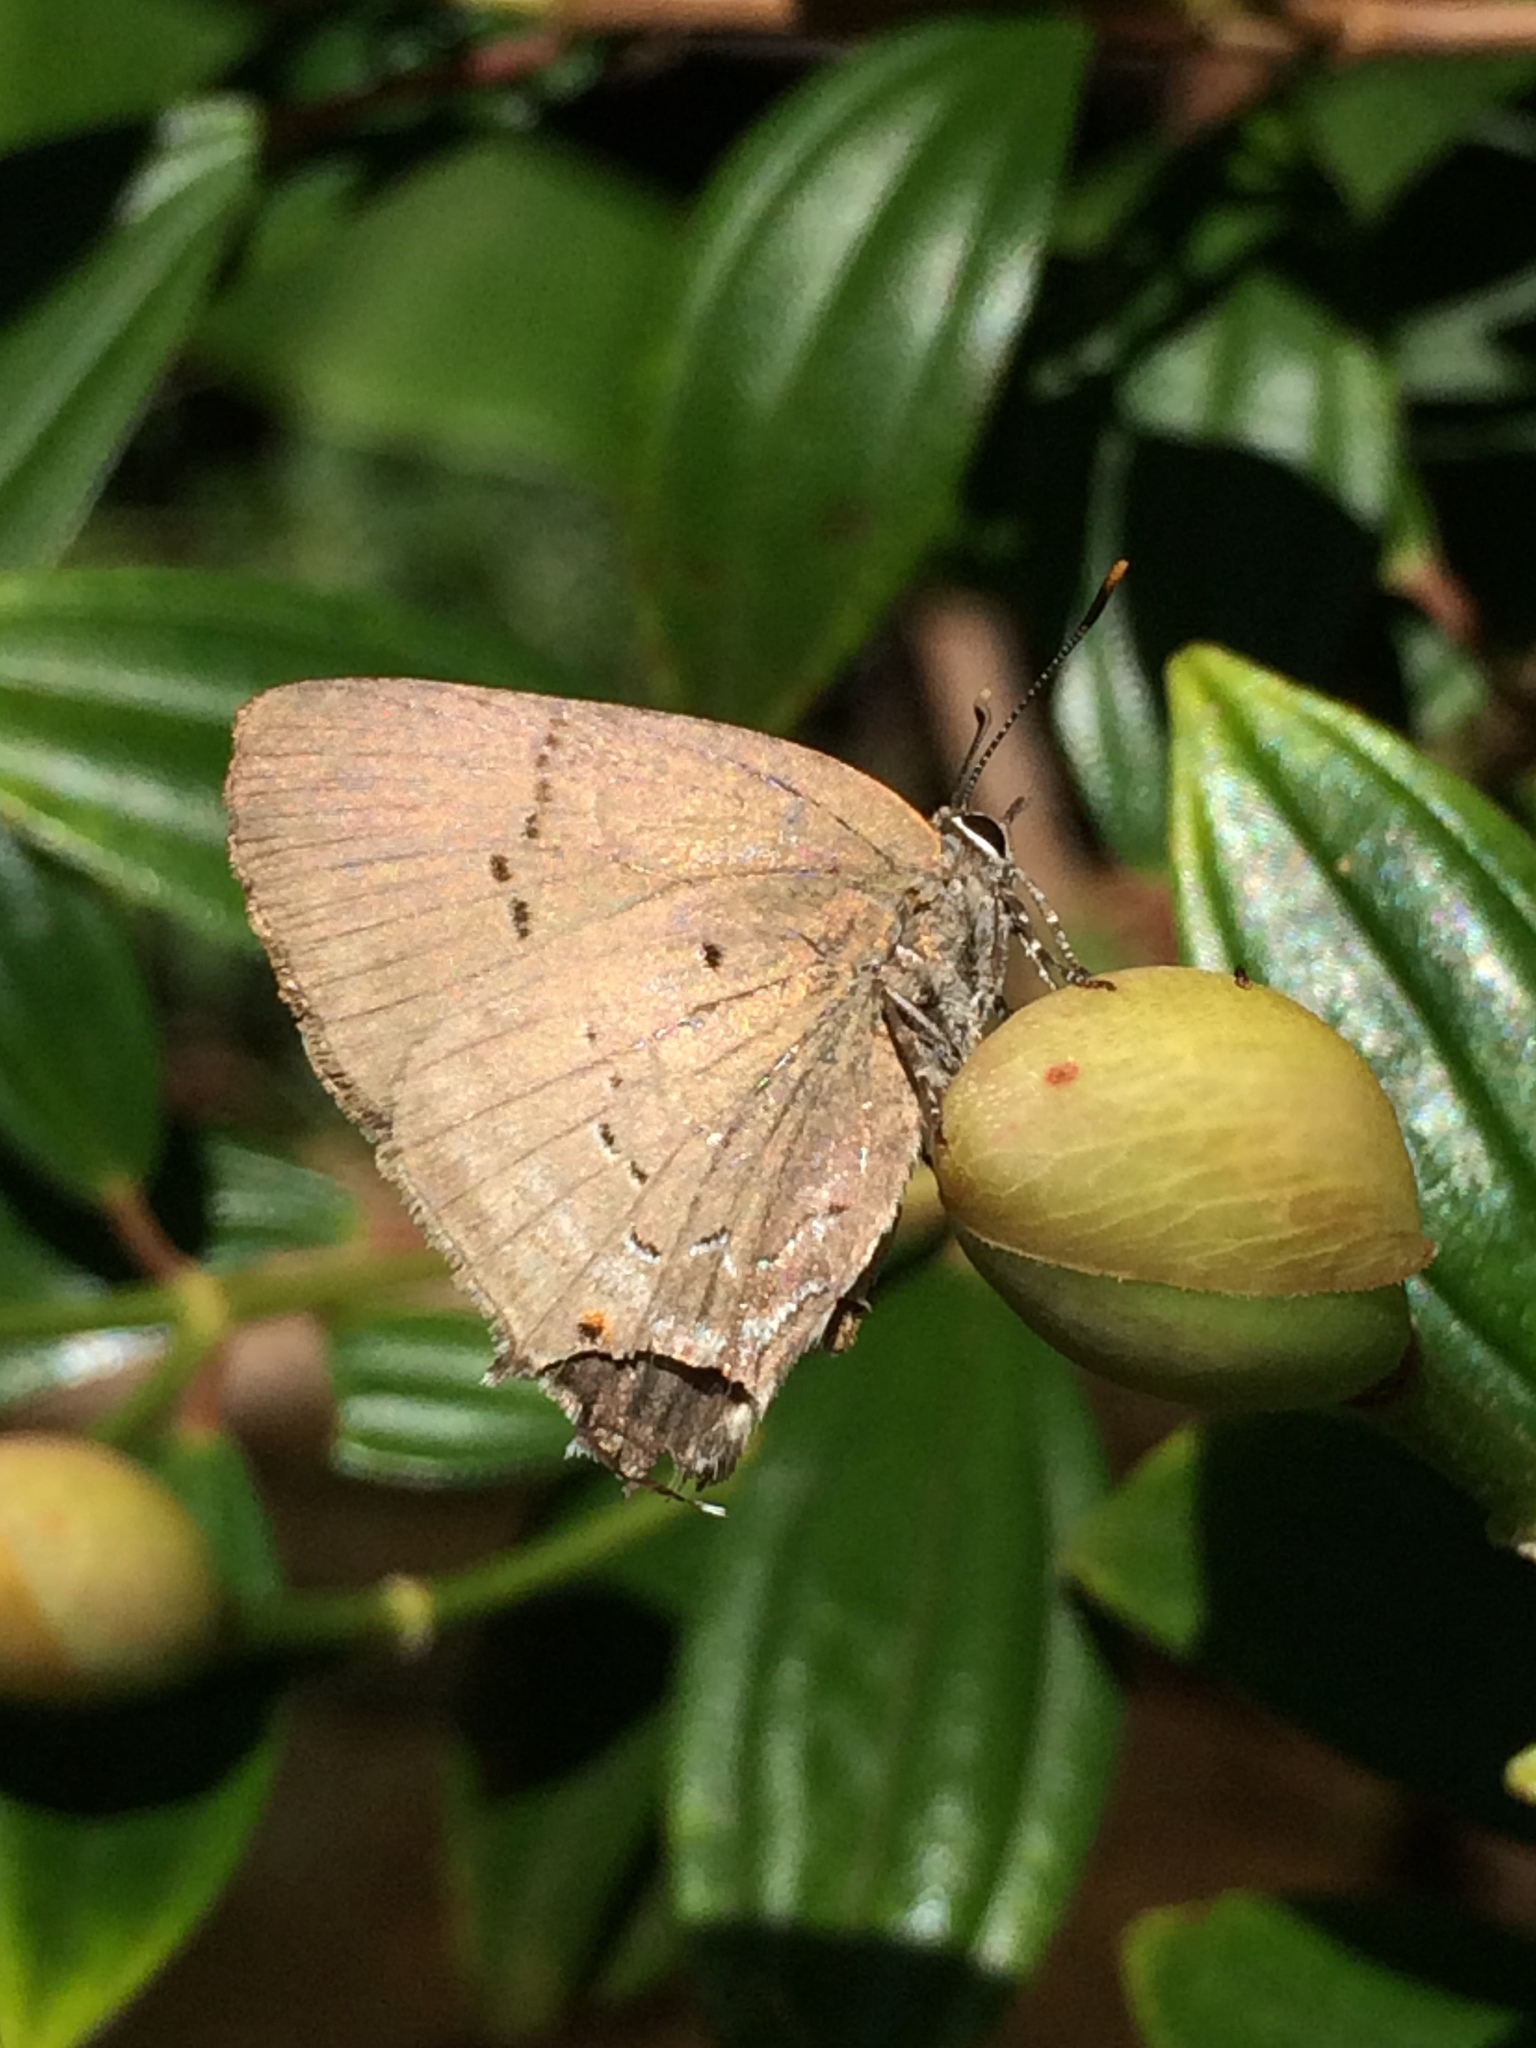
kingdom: Animalia
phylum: Arthropoda
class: Insecta
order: Lepidoptera
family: Lycaenidae
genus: Parrhasius
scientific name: Parrhasius polibetes
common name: Black-spot hairstreak
